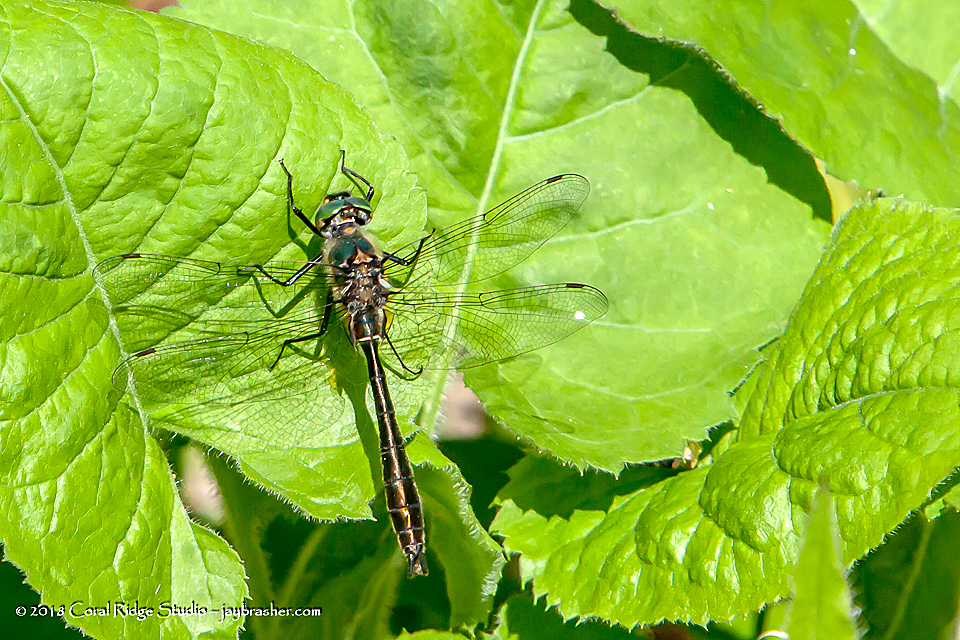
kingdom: Animalia
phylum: Arthropoda
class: Insecta
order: Odonata
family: Corduliidae
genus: Cordulia
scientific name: Cordulia shurtleffii
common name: American emerald
